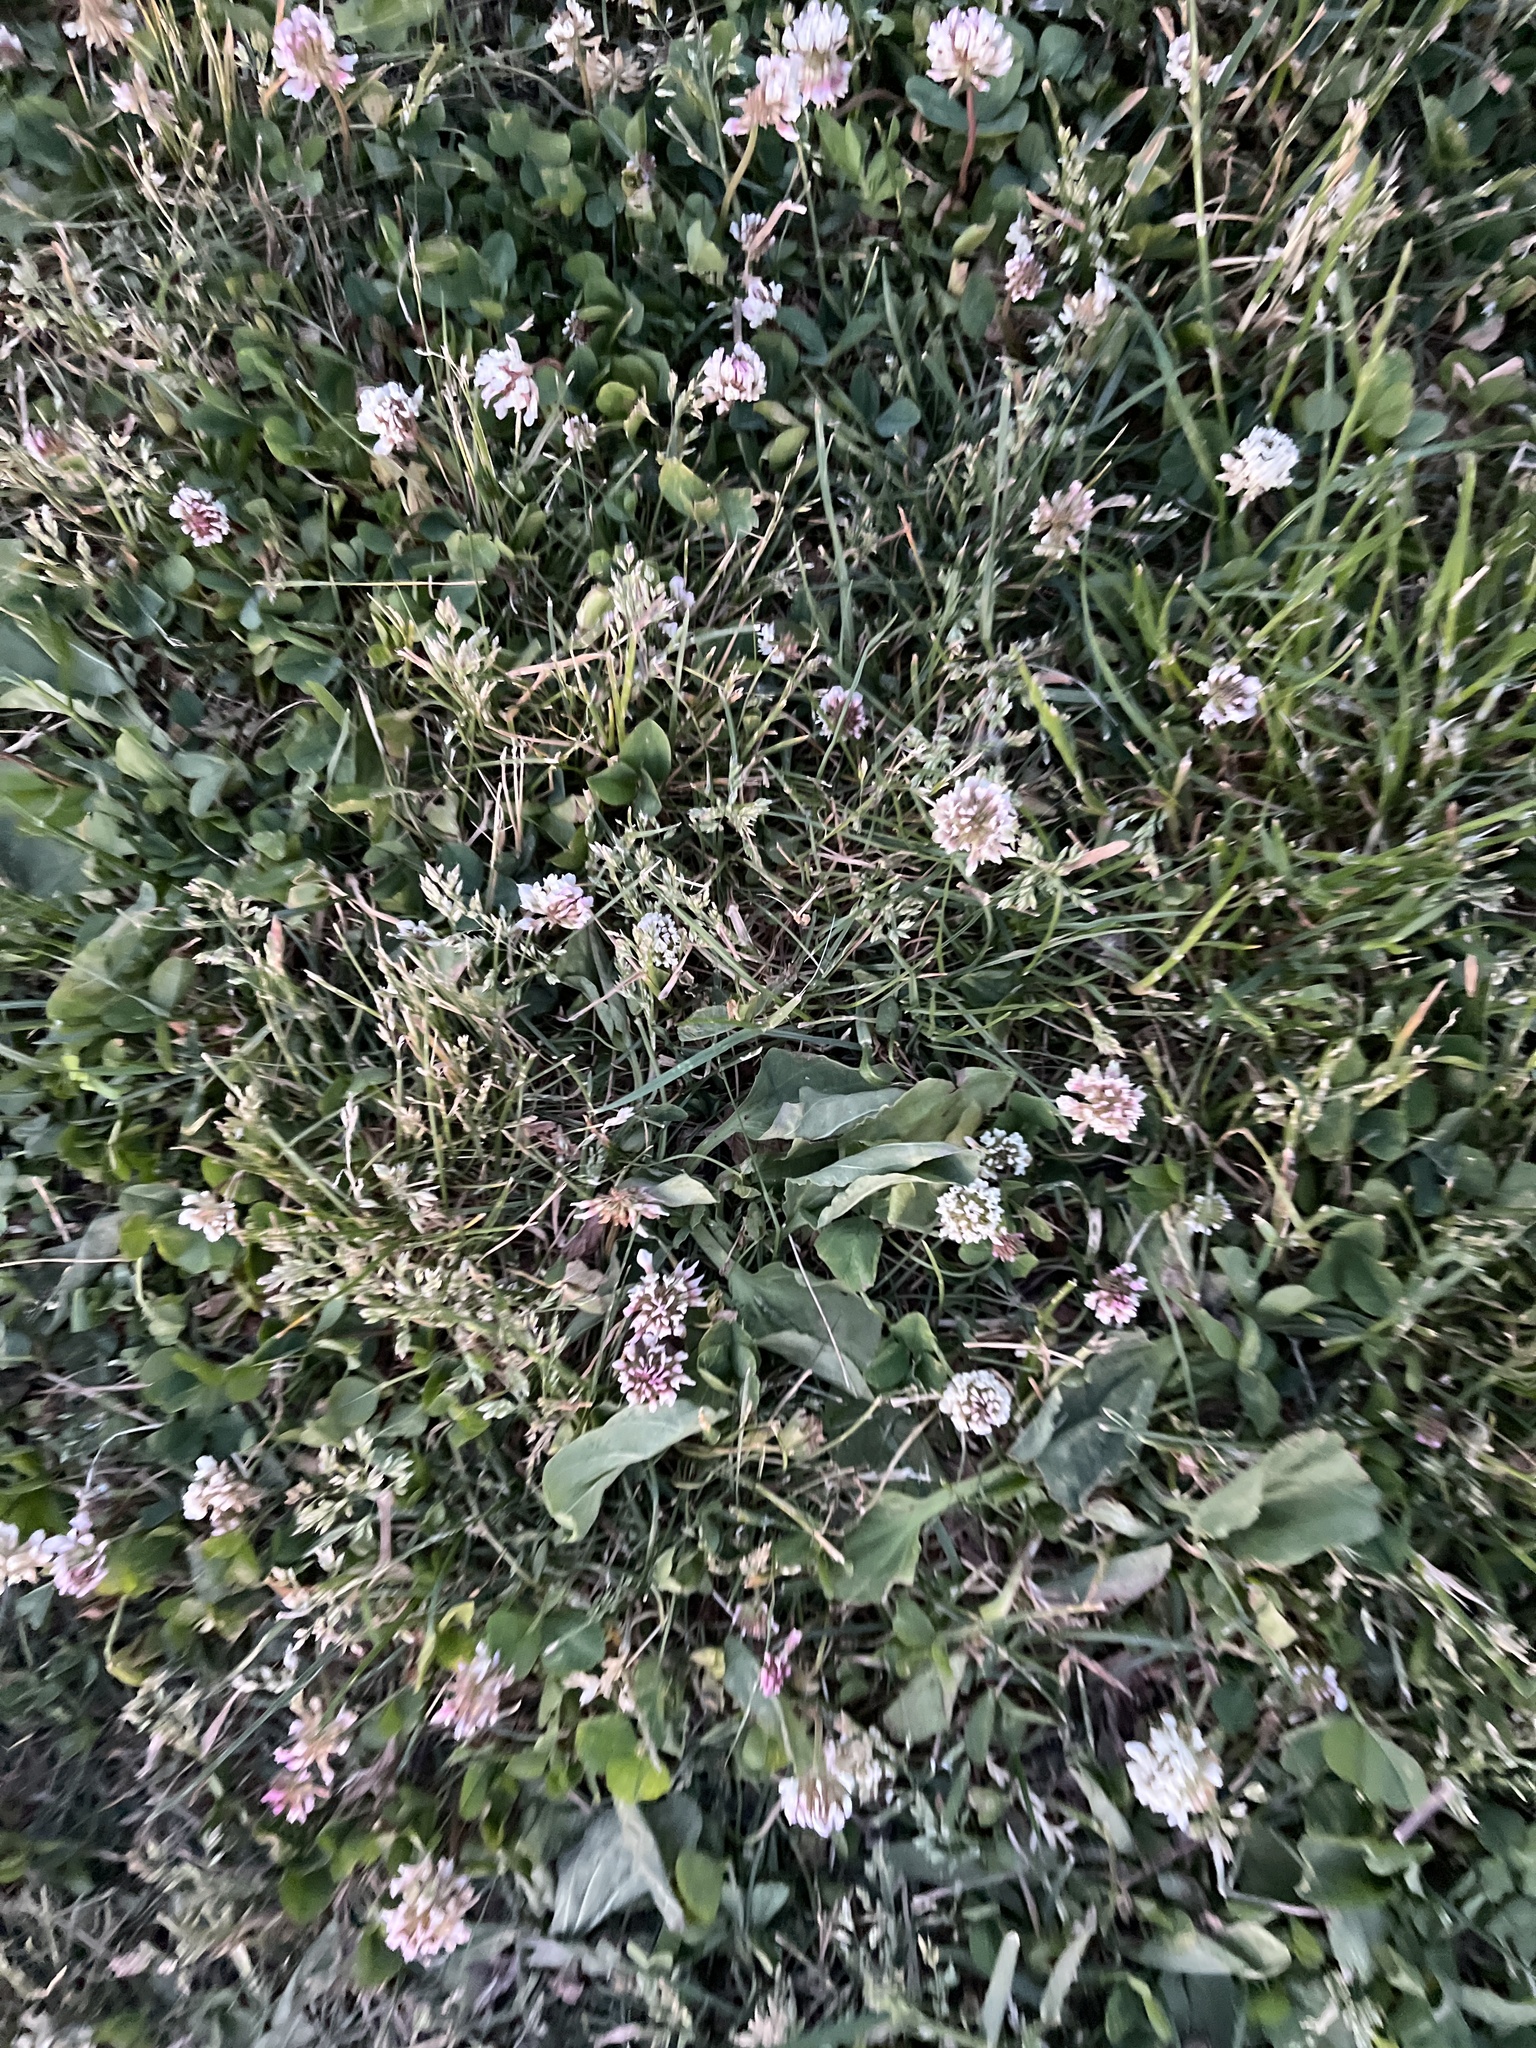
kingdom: Plantae
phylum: Tracheophyta
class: Magnoliopsida
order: Fabales
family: Fabaceae
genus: Trifolium
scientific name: Trifolium repens
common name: White clover
